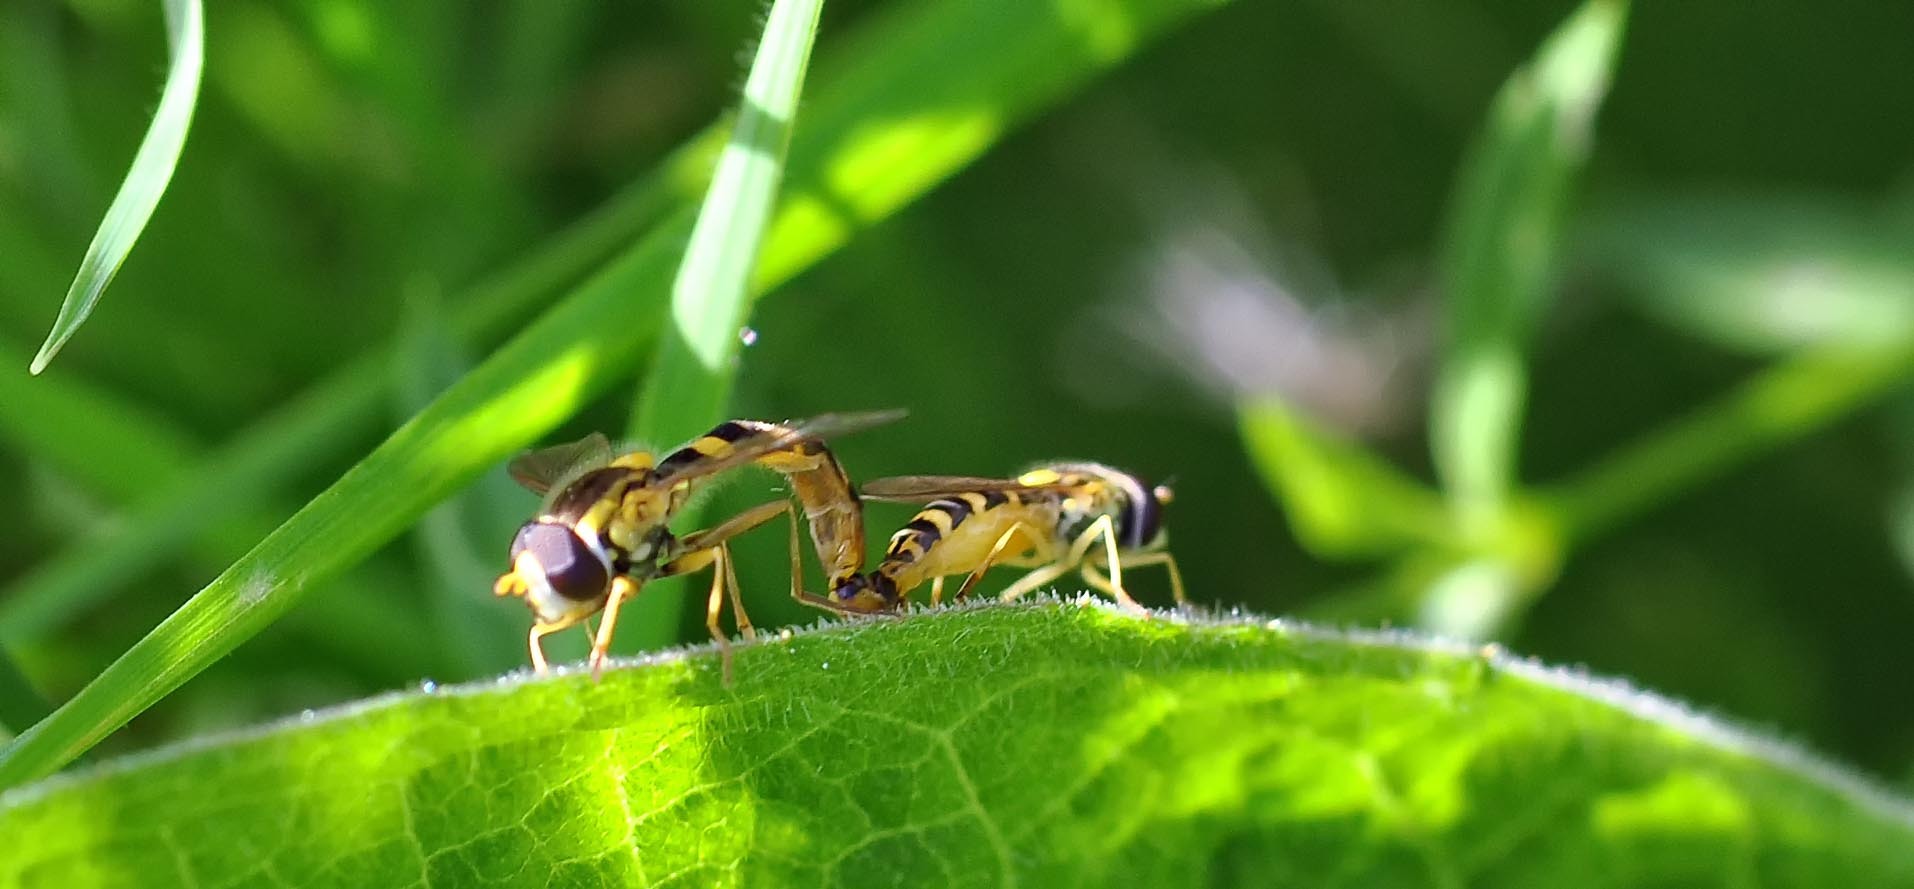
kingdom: Animalia
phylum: Arthropoda
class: Insecta
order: Diptera
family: Syrphidae
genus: Sphaerophoria
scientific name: Sphaerophoria
